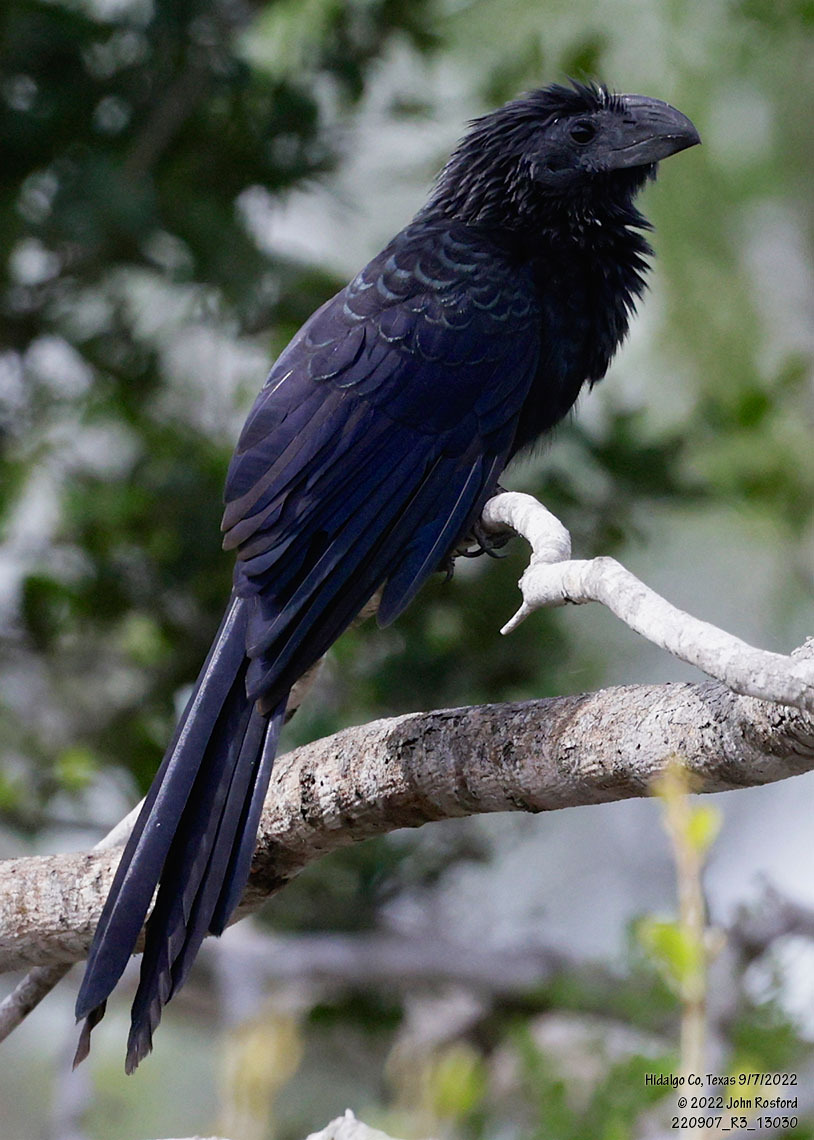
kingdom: Animalia
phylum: Chordata
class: Aves
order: Cuculiformes
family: Cuculidae
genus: Crotophaga
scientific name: Crotophaga sulcirostris
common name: Groove-billed ani
